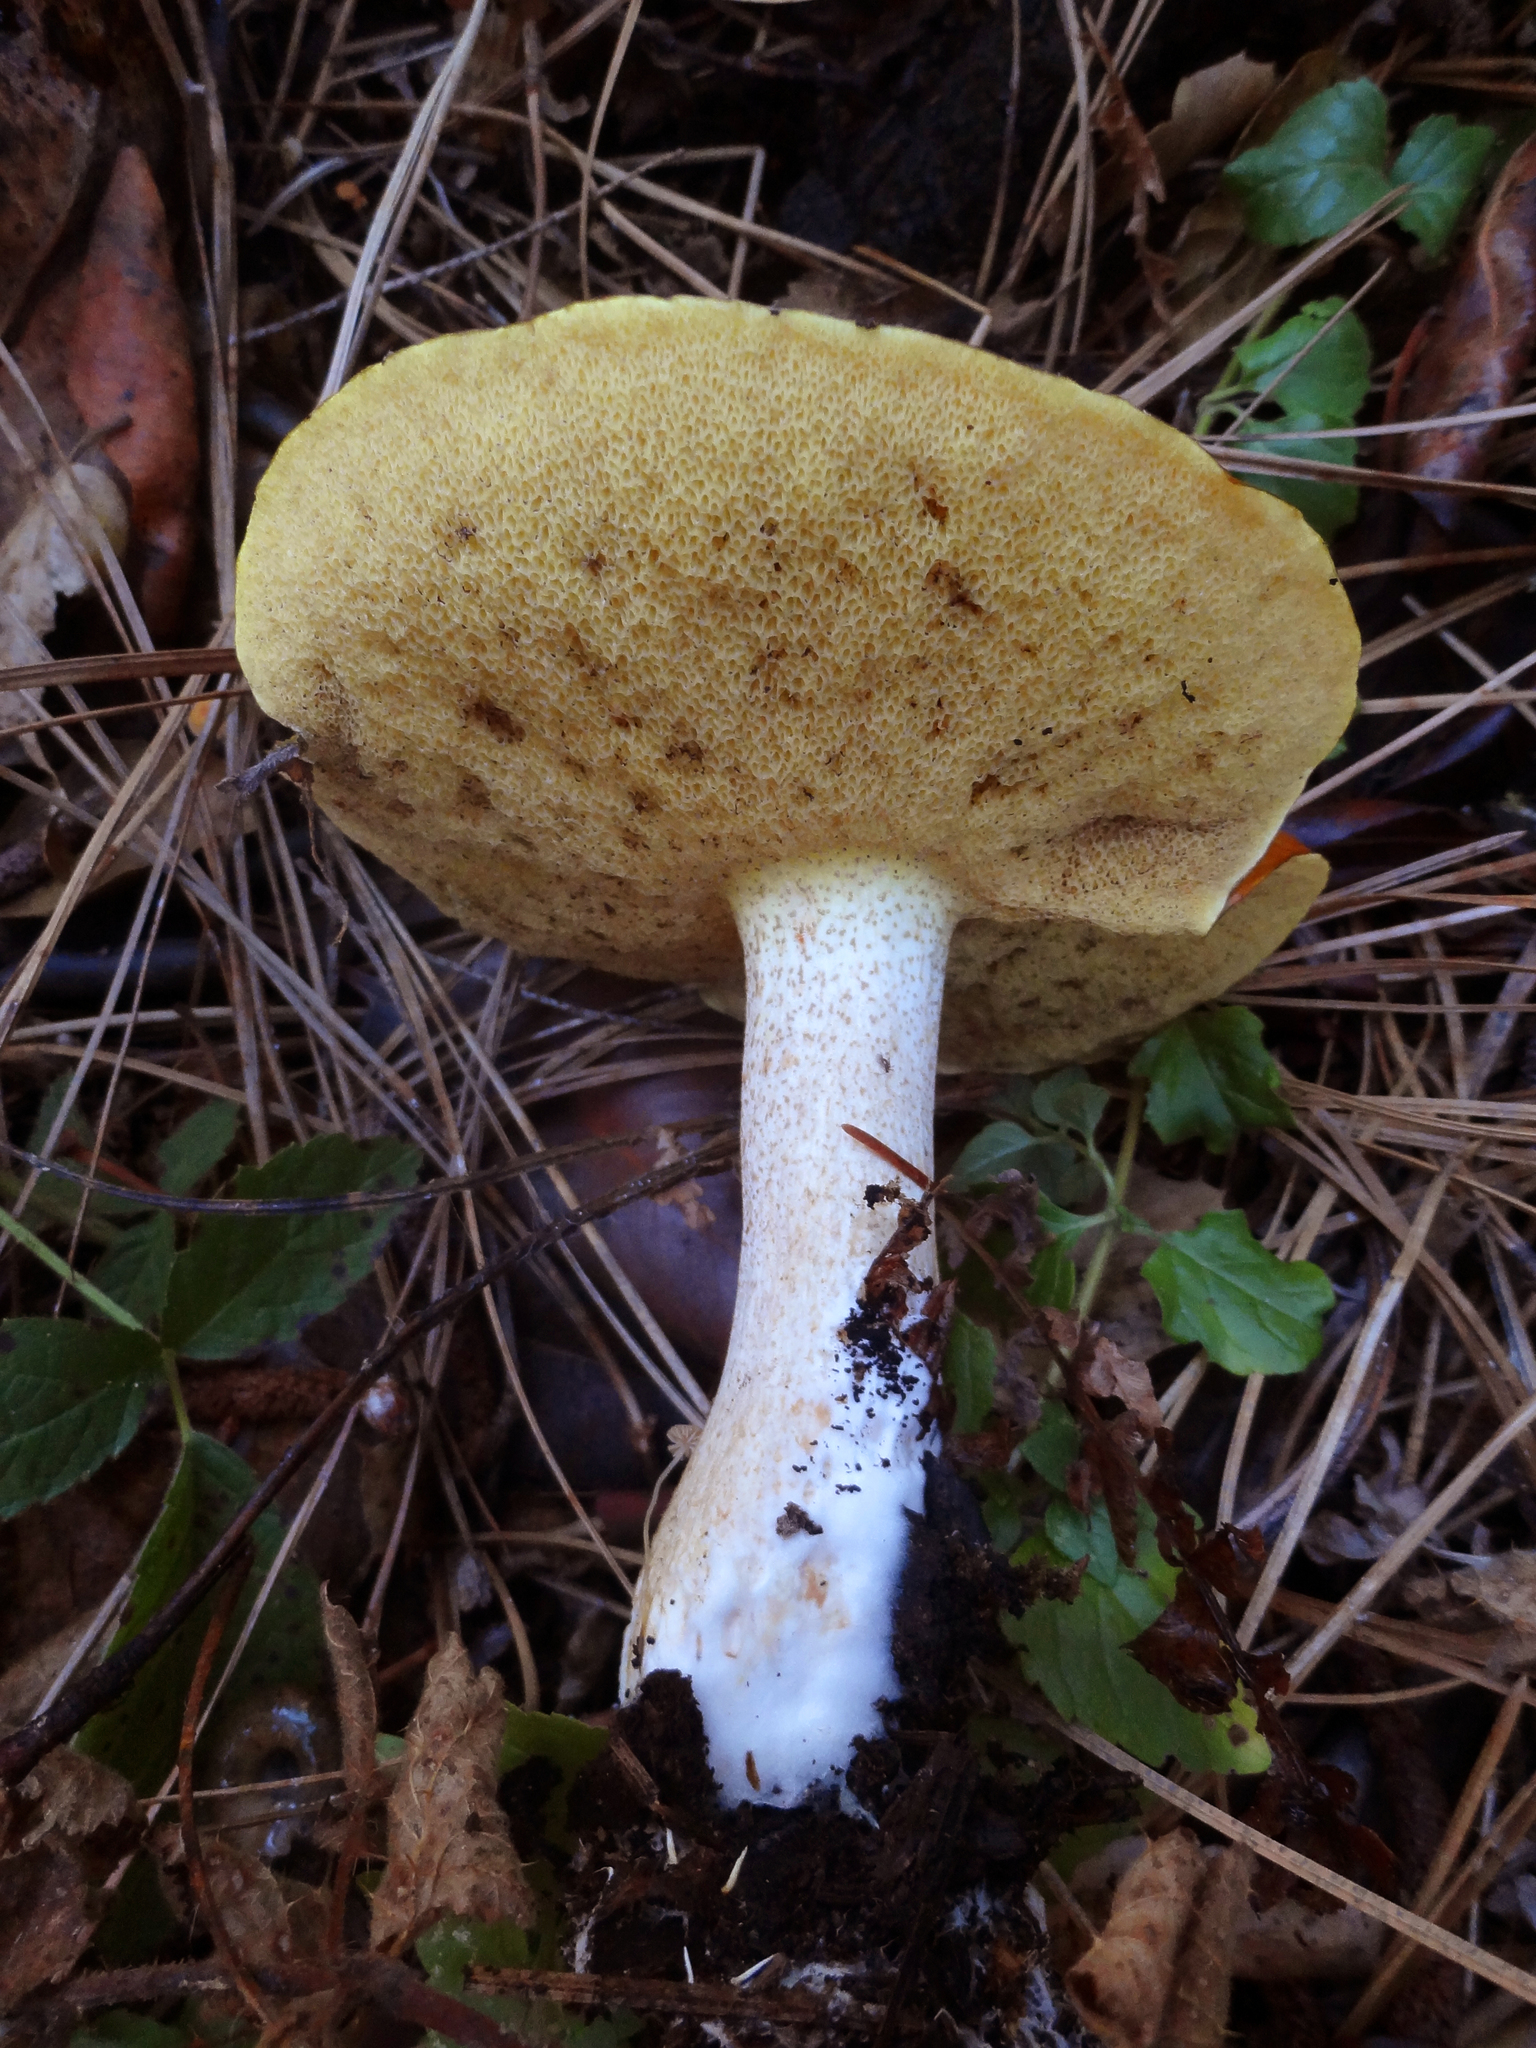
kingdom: Fungi
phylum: Basidiomycota
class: Agaricomycetes
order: Boletales
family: Suillaceae
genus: Suillus
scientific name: Suillus pungens
